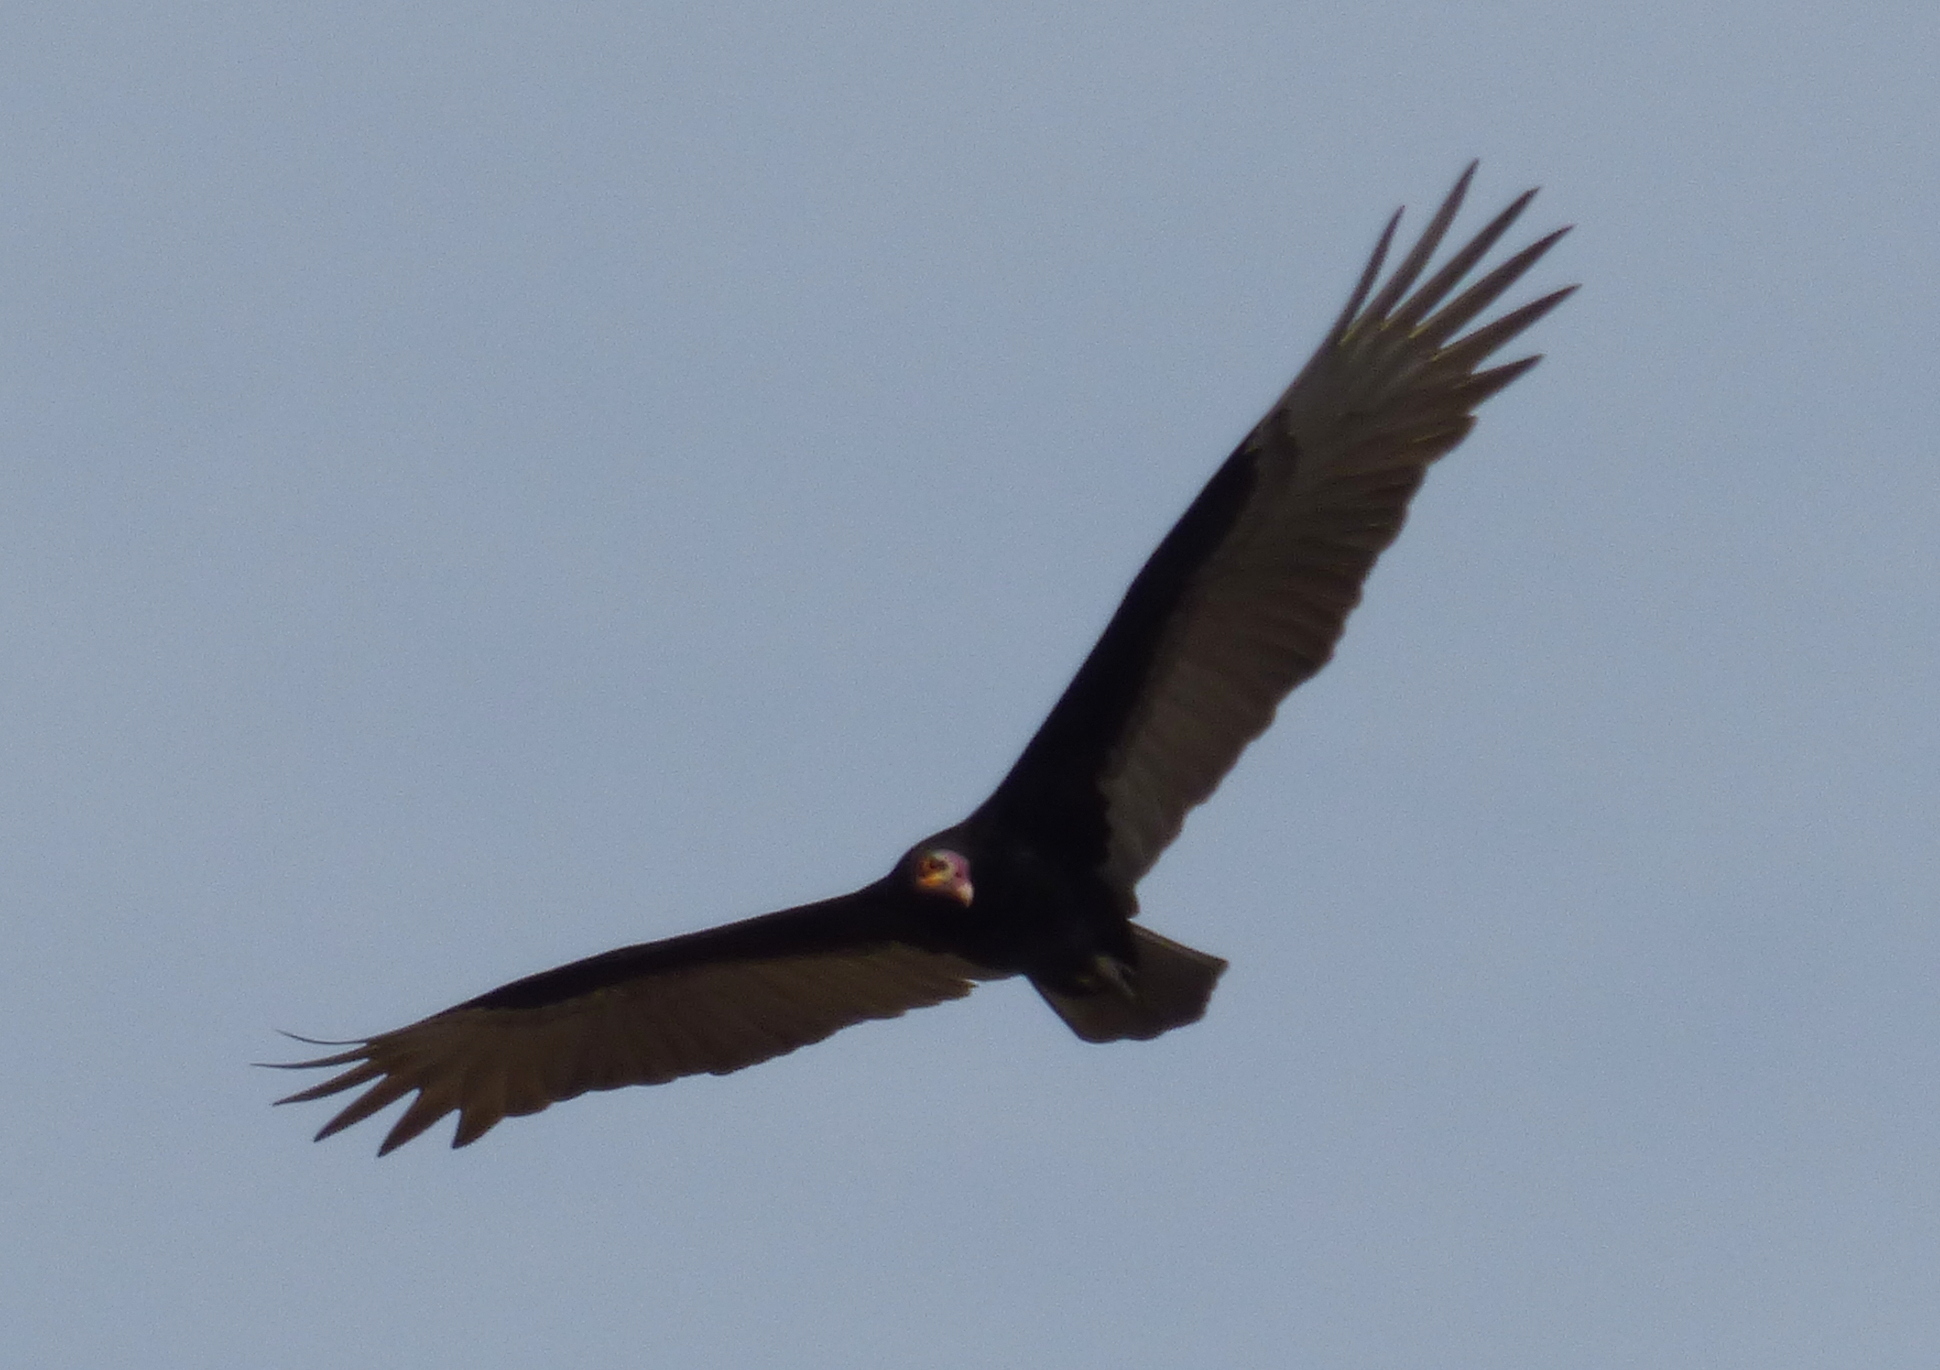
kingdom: Animalia
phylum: Chordata
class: Aves
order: Accipitriformes
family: Cathartidae
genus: Cathartes
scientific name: Cathartes burrovianus
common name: Lesser yellow-headed vulture
